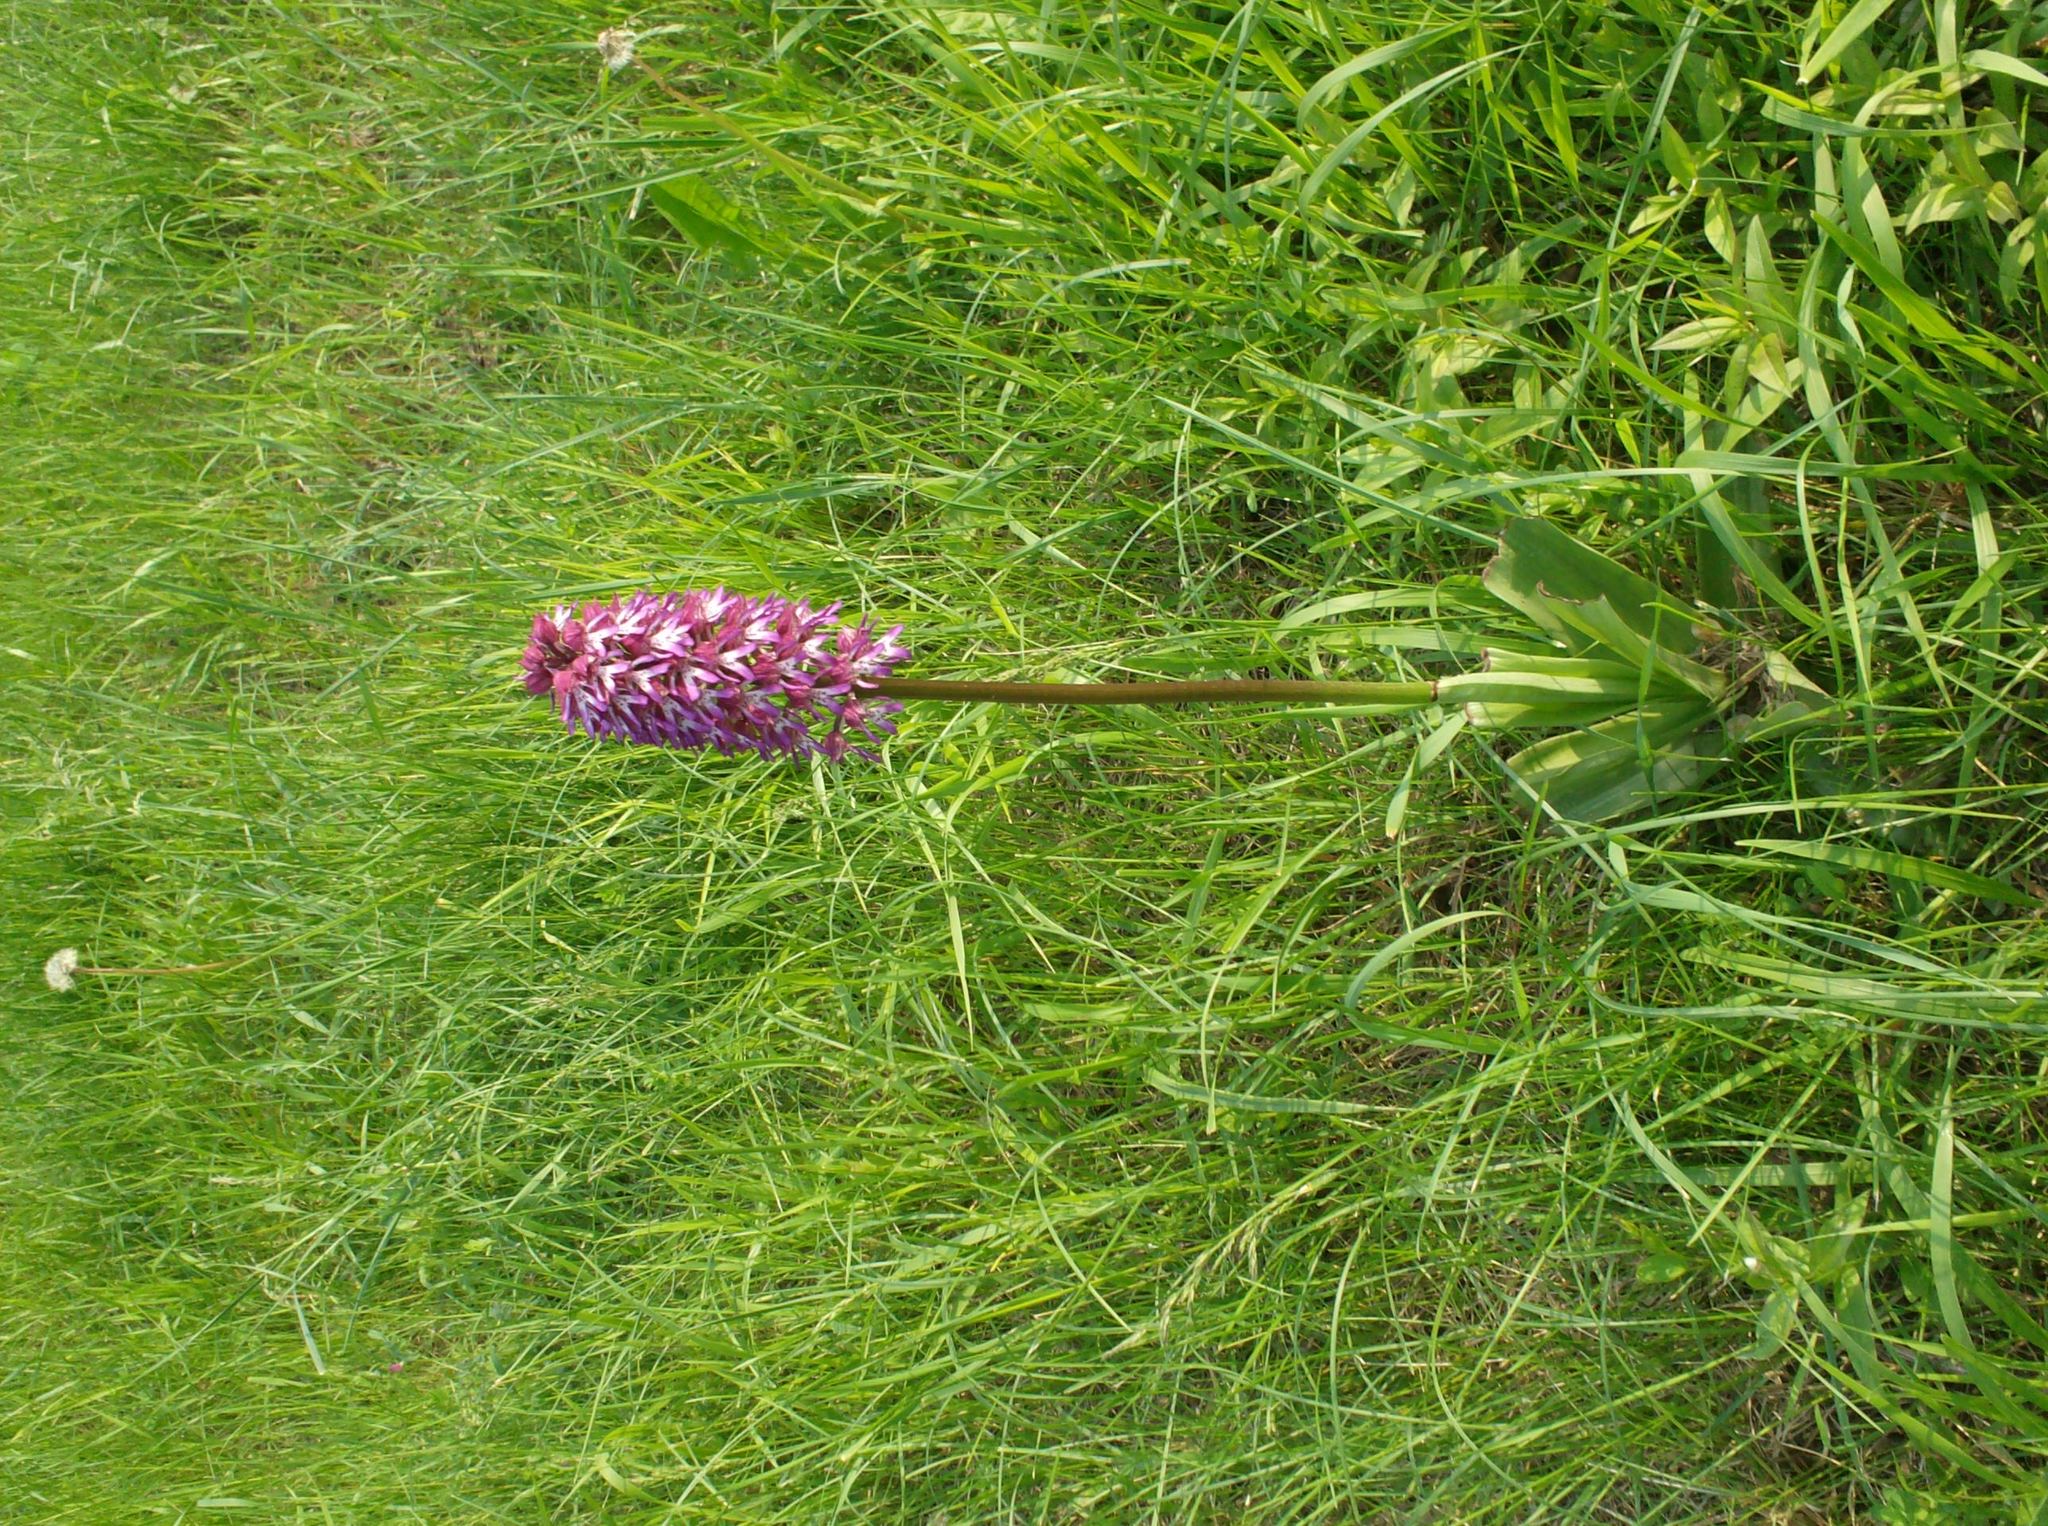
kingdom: Plantae
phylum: Tracheophyta
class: Liliopsida
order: Asparagales
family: Orchidaceae
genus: Orchis
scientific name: Orchis purpurea
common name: Lady orchid
